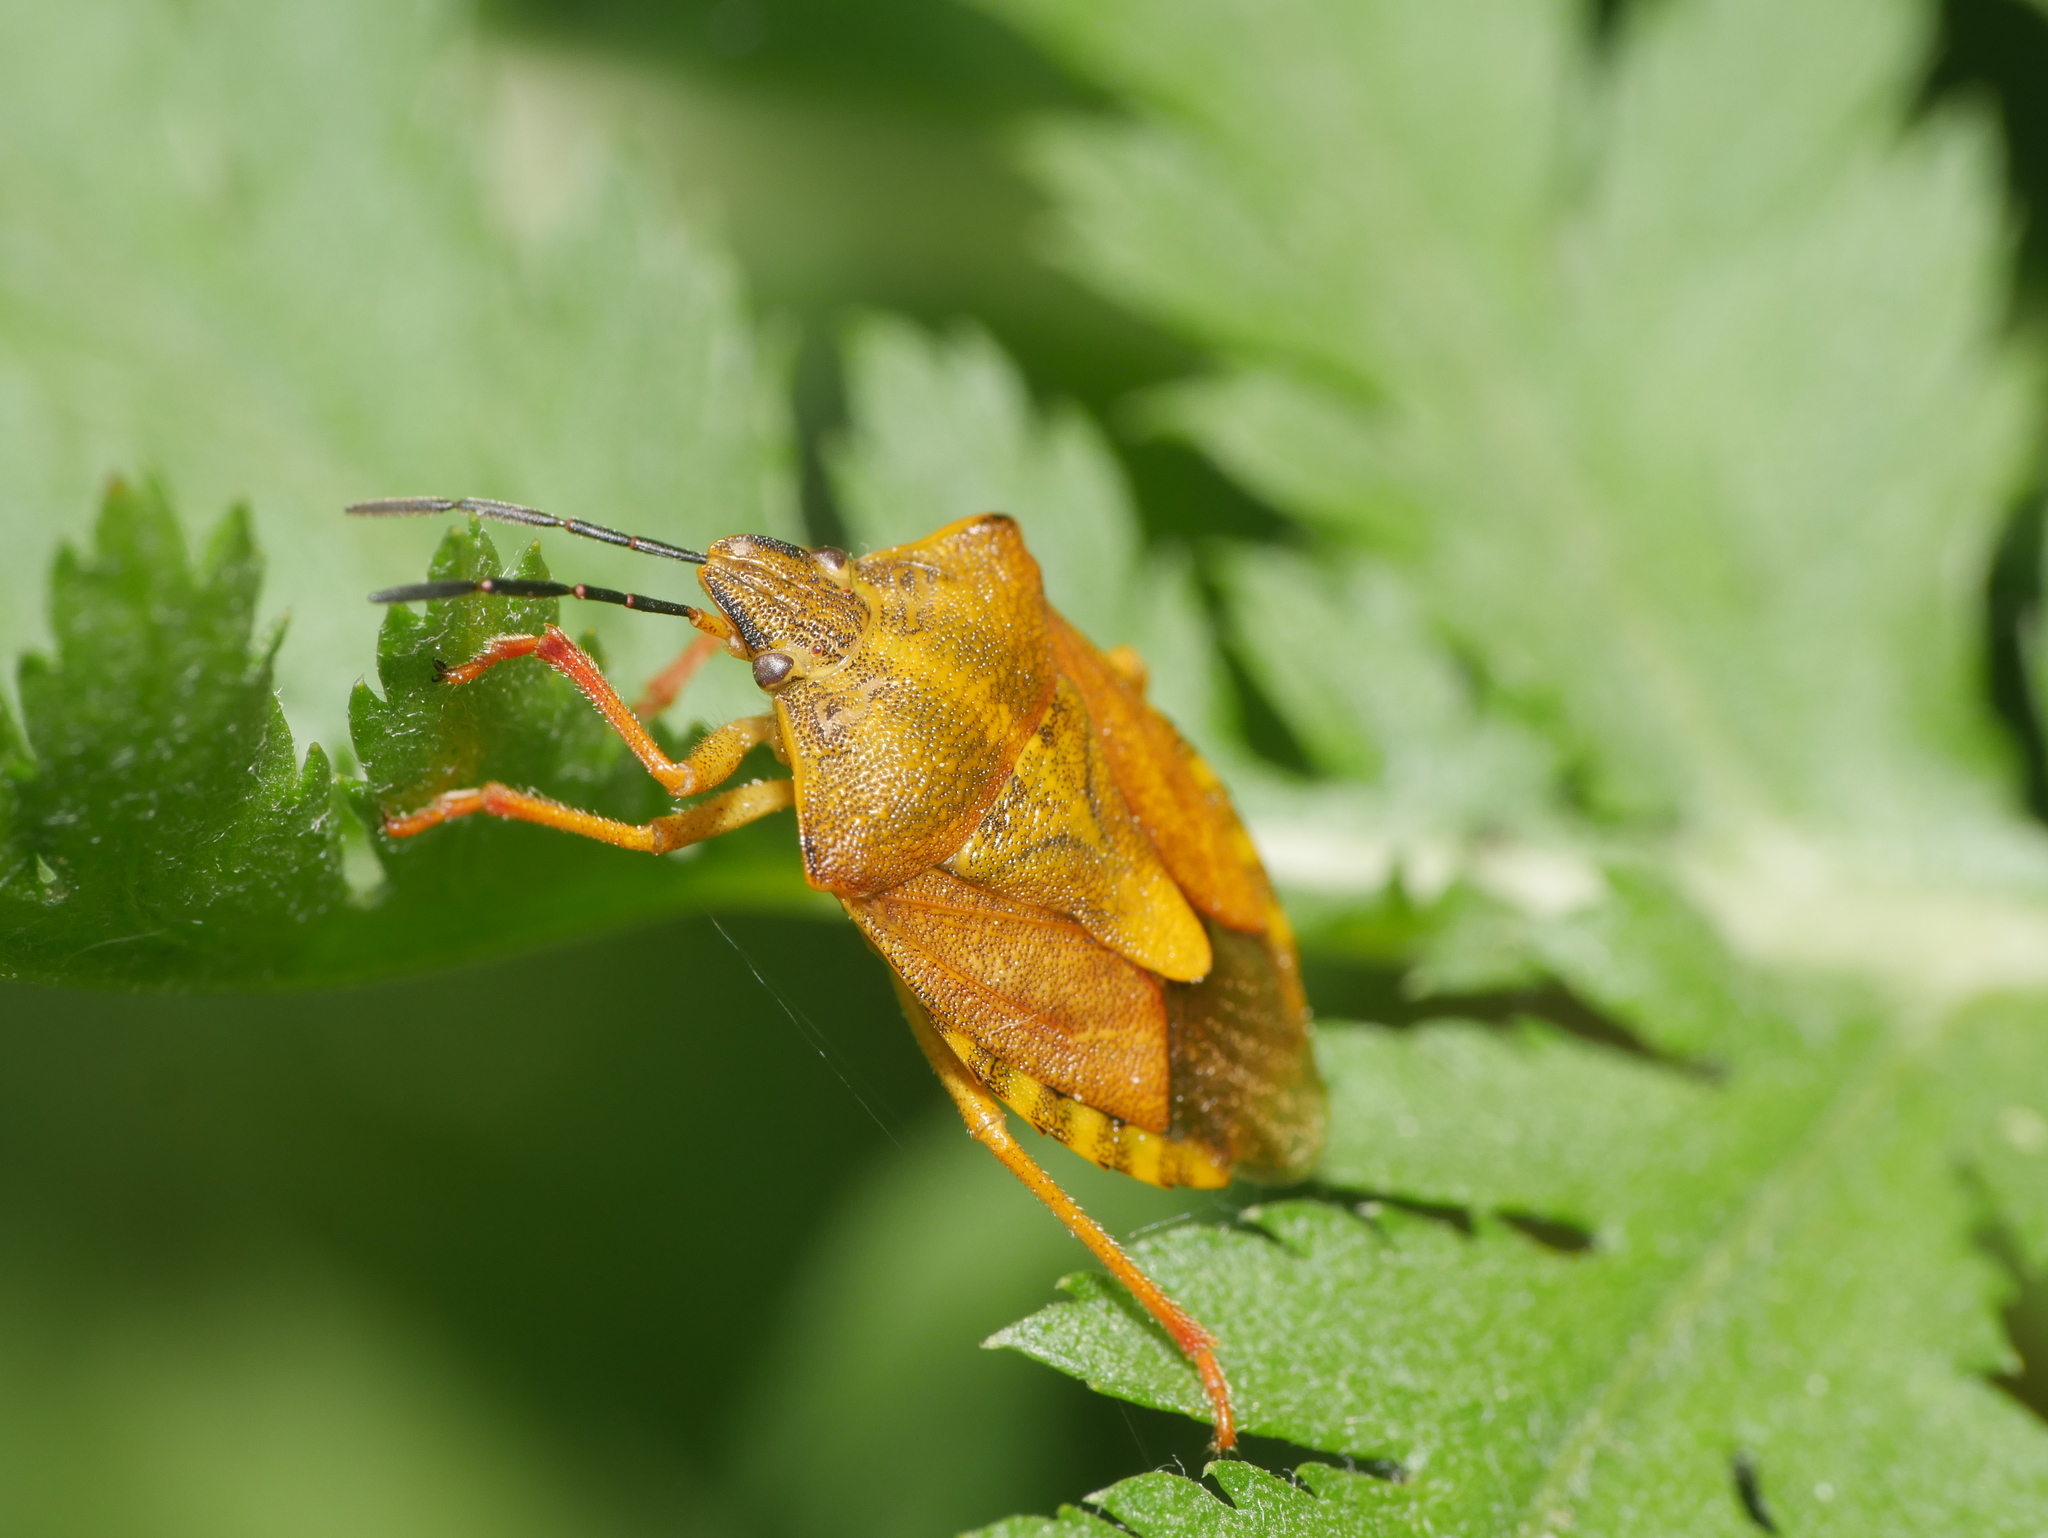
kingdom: Animalia
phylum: Arthropoda
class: Insecta
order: Hemiptera
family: Pentatomidae
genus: Carpocoris
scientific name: Carpocoris purpureipennis
